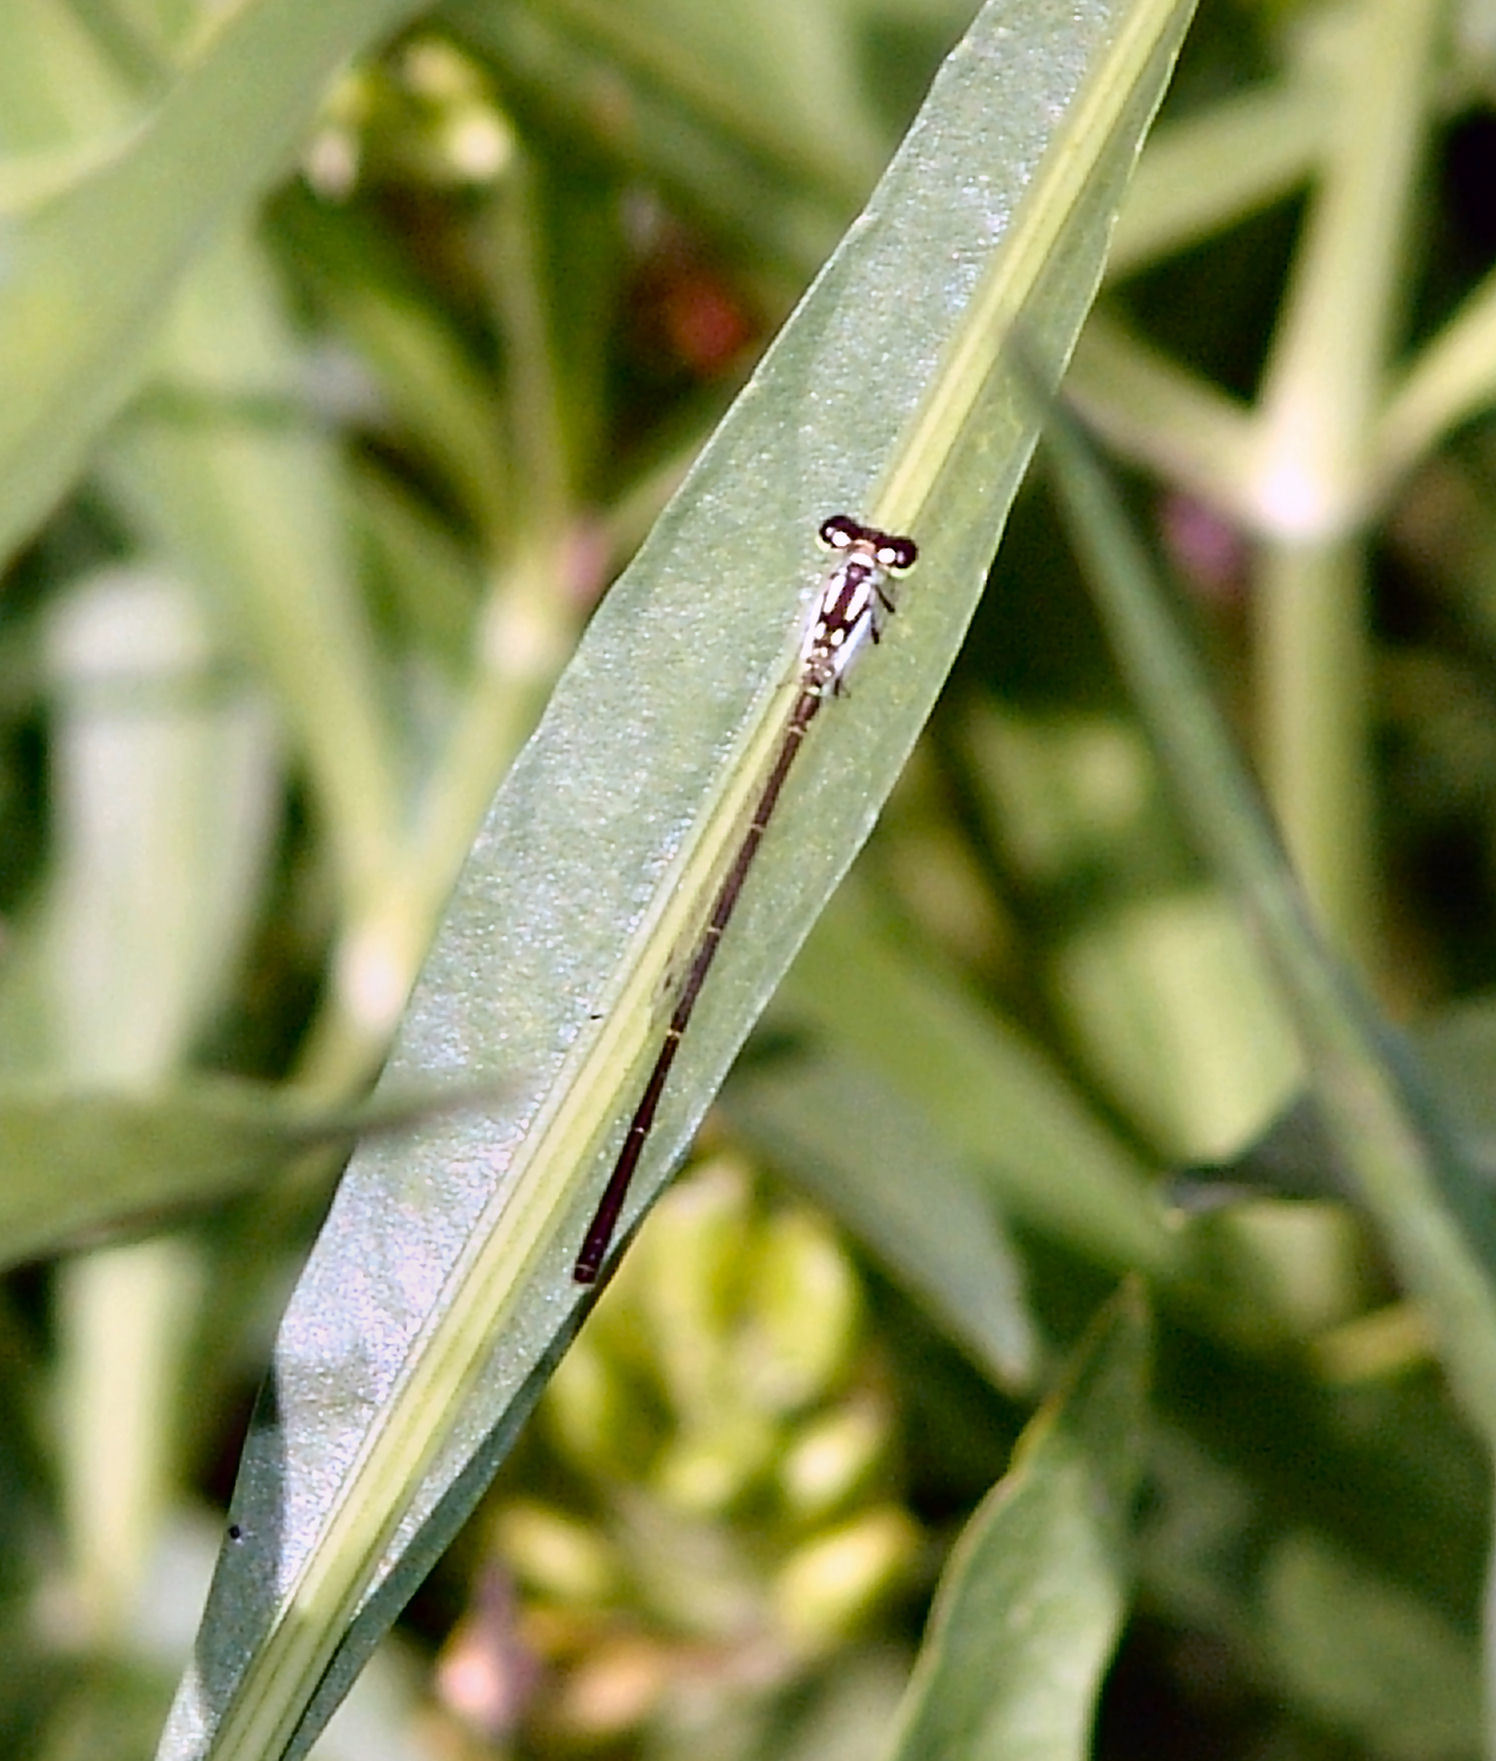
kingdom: Animalia
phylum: Arthropoda
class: Insecta
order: Odonata
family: Coenagrionidae
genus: Ischnura
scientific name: Ischnura posita
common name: Fragile forktail
